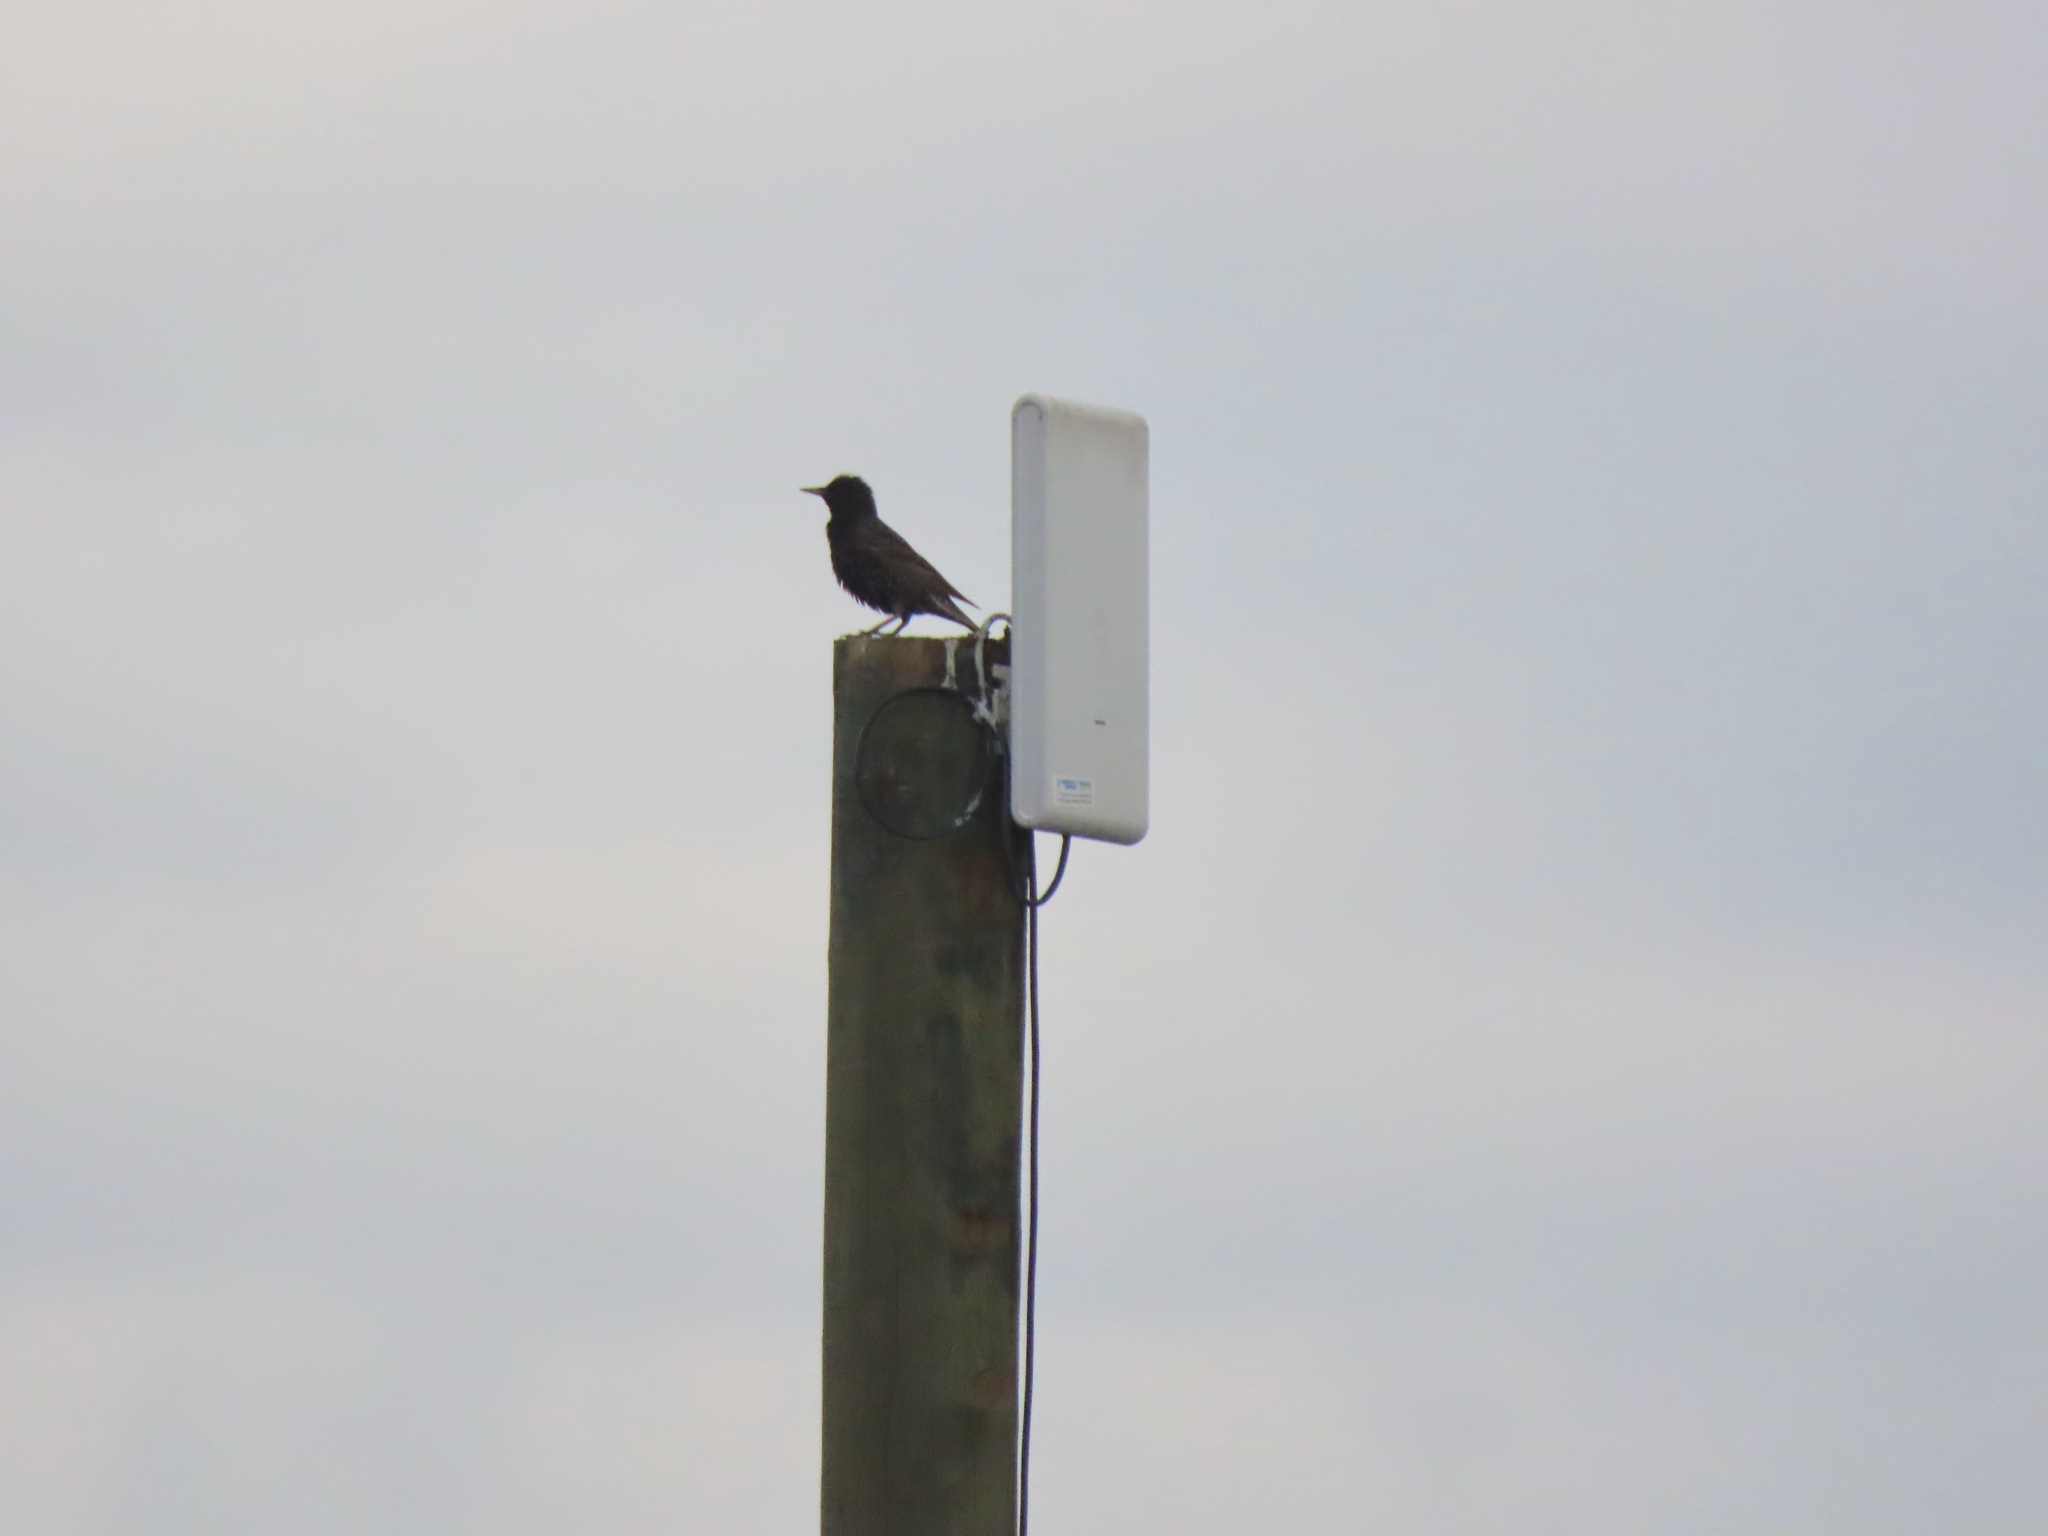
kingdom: Animalia
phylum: Chordata
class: Aves
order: Passeriformes
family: Sturnidae
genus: Sturnus
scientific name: Sturnus vulgaris
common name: Common starling
